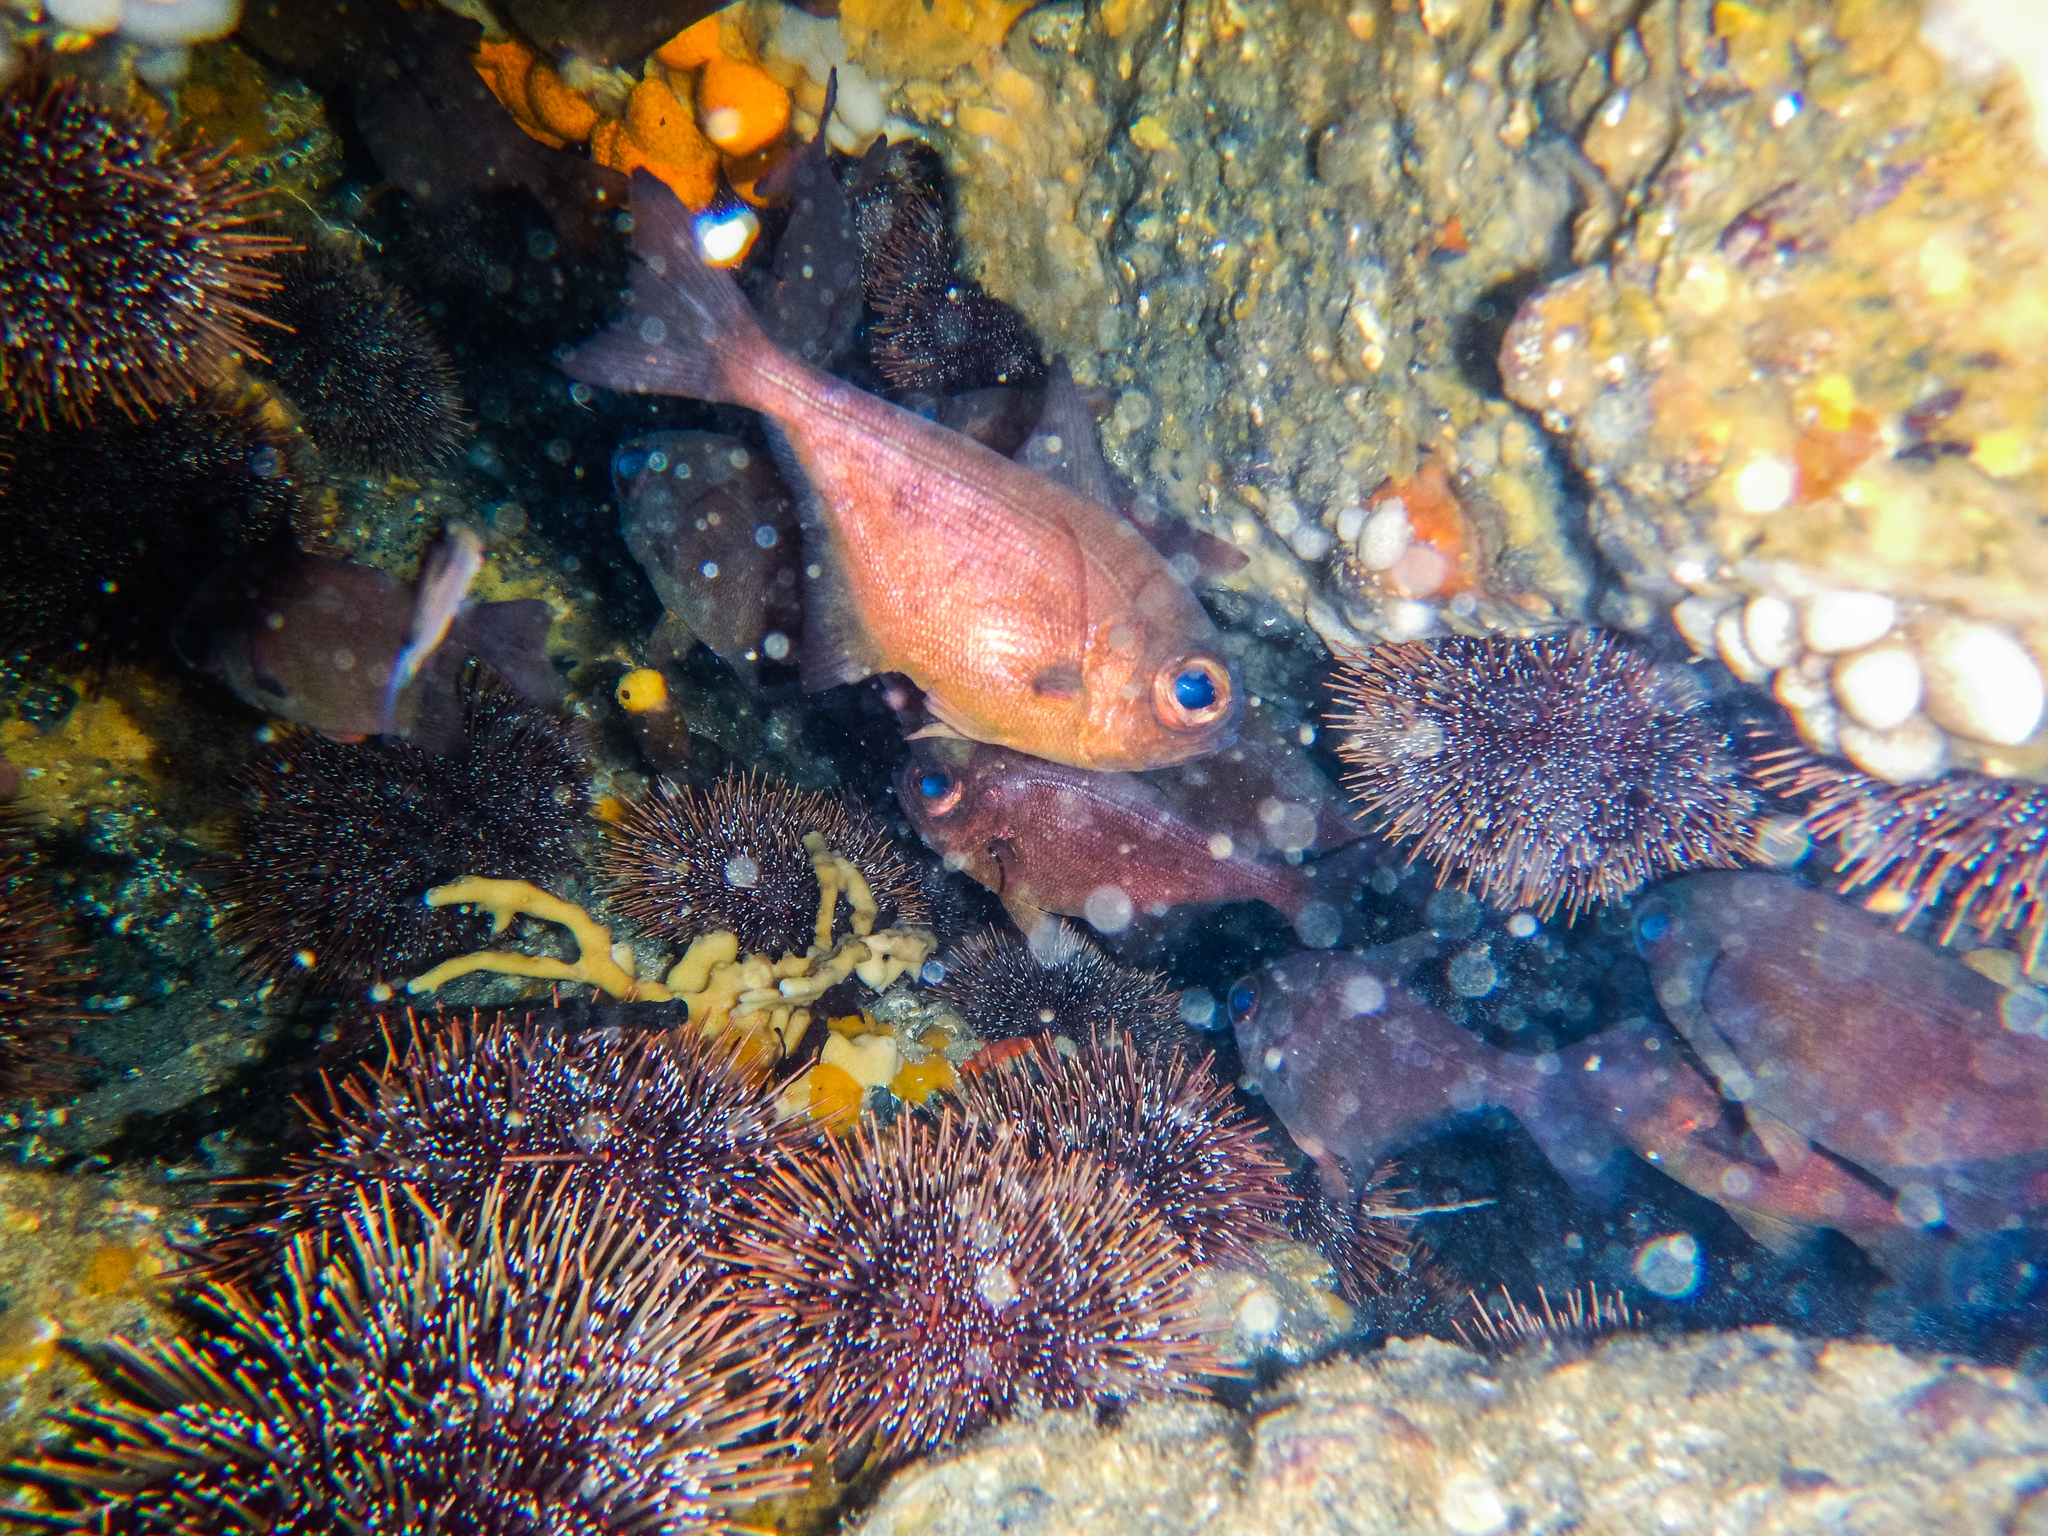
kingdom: Animalia
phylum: Chordata
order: Perciformes
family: Pempheridae
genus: Pempheris
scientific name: Pempheris adspersa
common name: Bigeye
